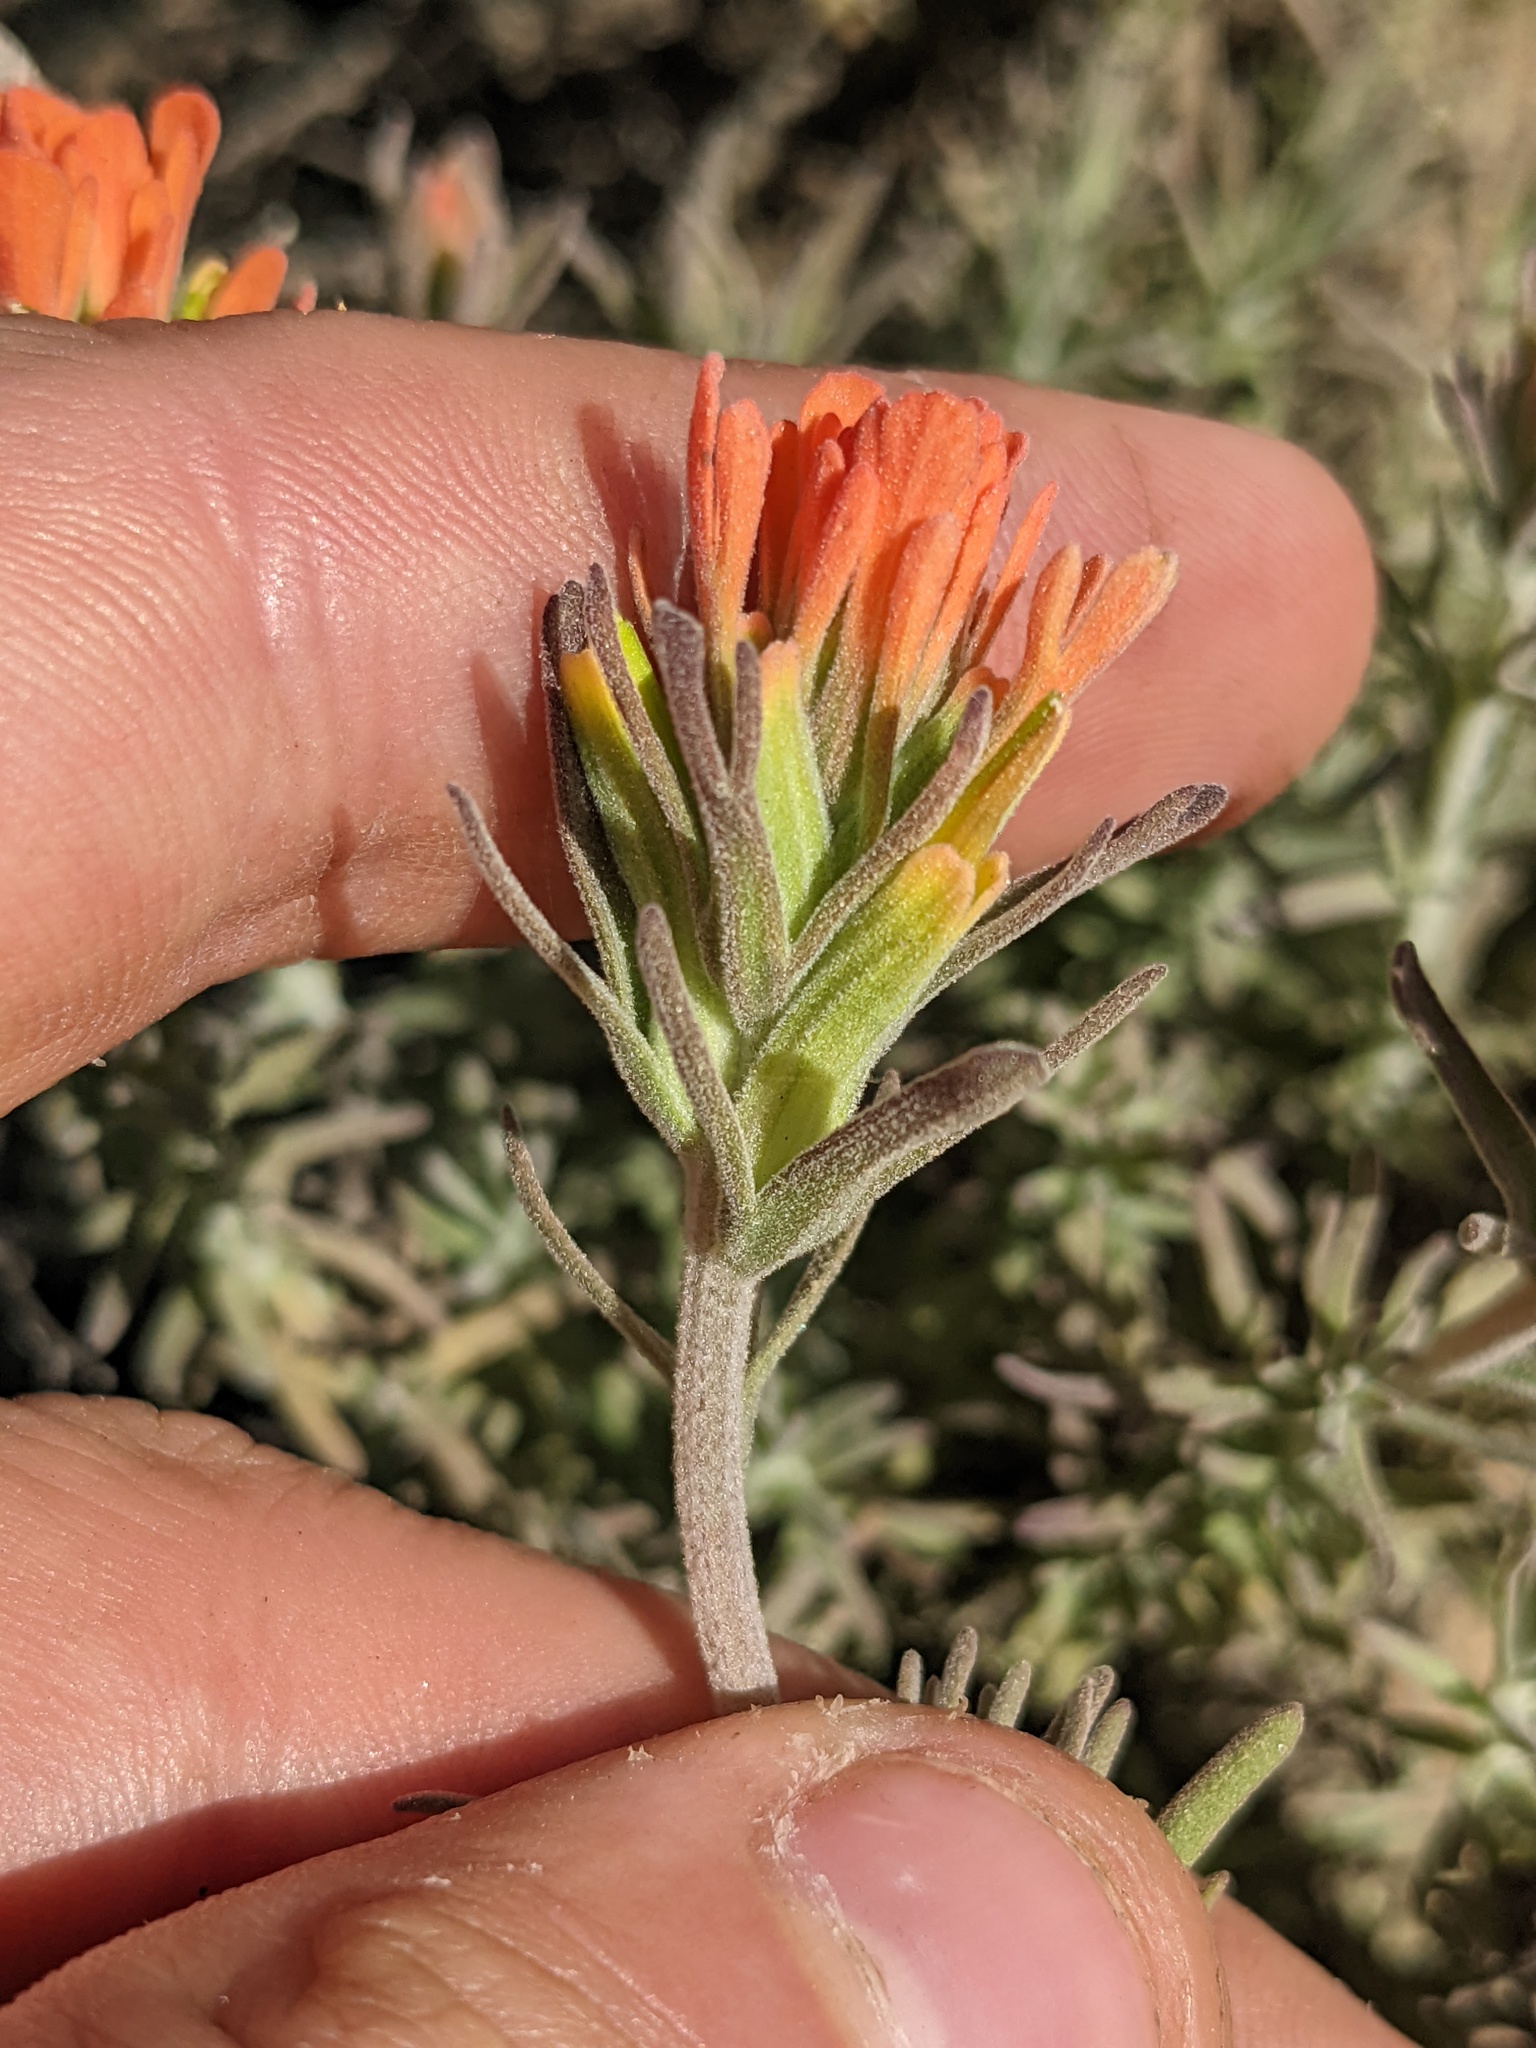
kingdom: Plantae
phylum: Tracheophyta
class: Magnoliopsida
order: Lamiales
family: Orobanchaceae
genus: Castilleja
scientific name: Castilleja foliolosa
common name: Woolly indian paintbrush
